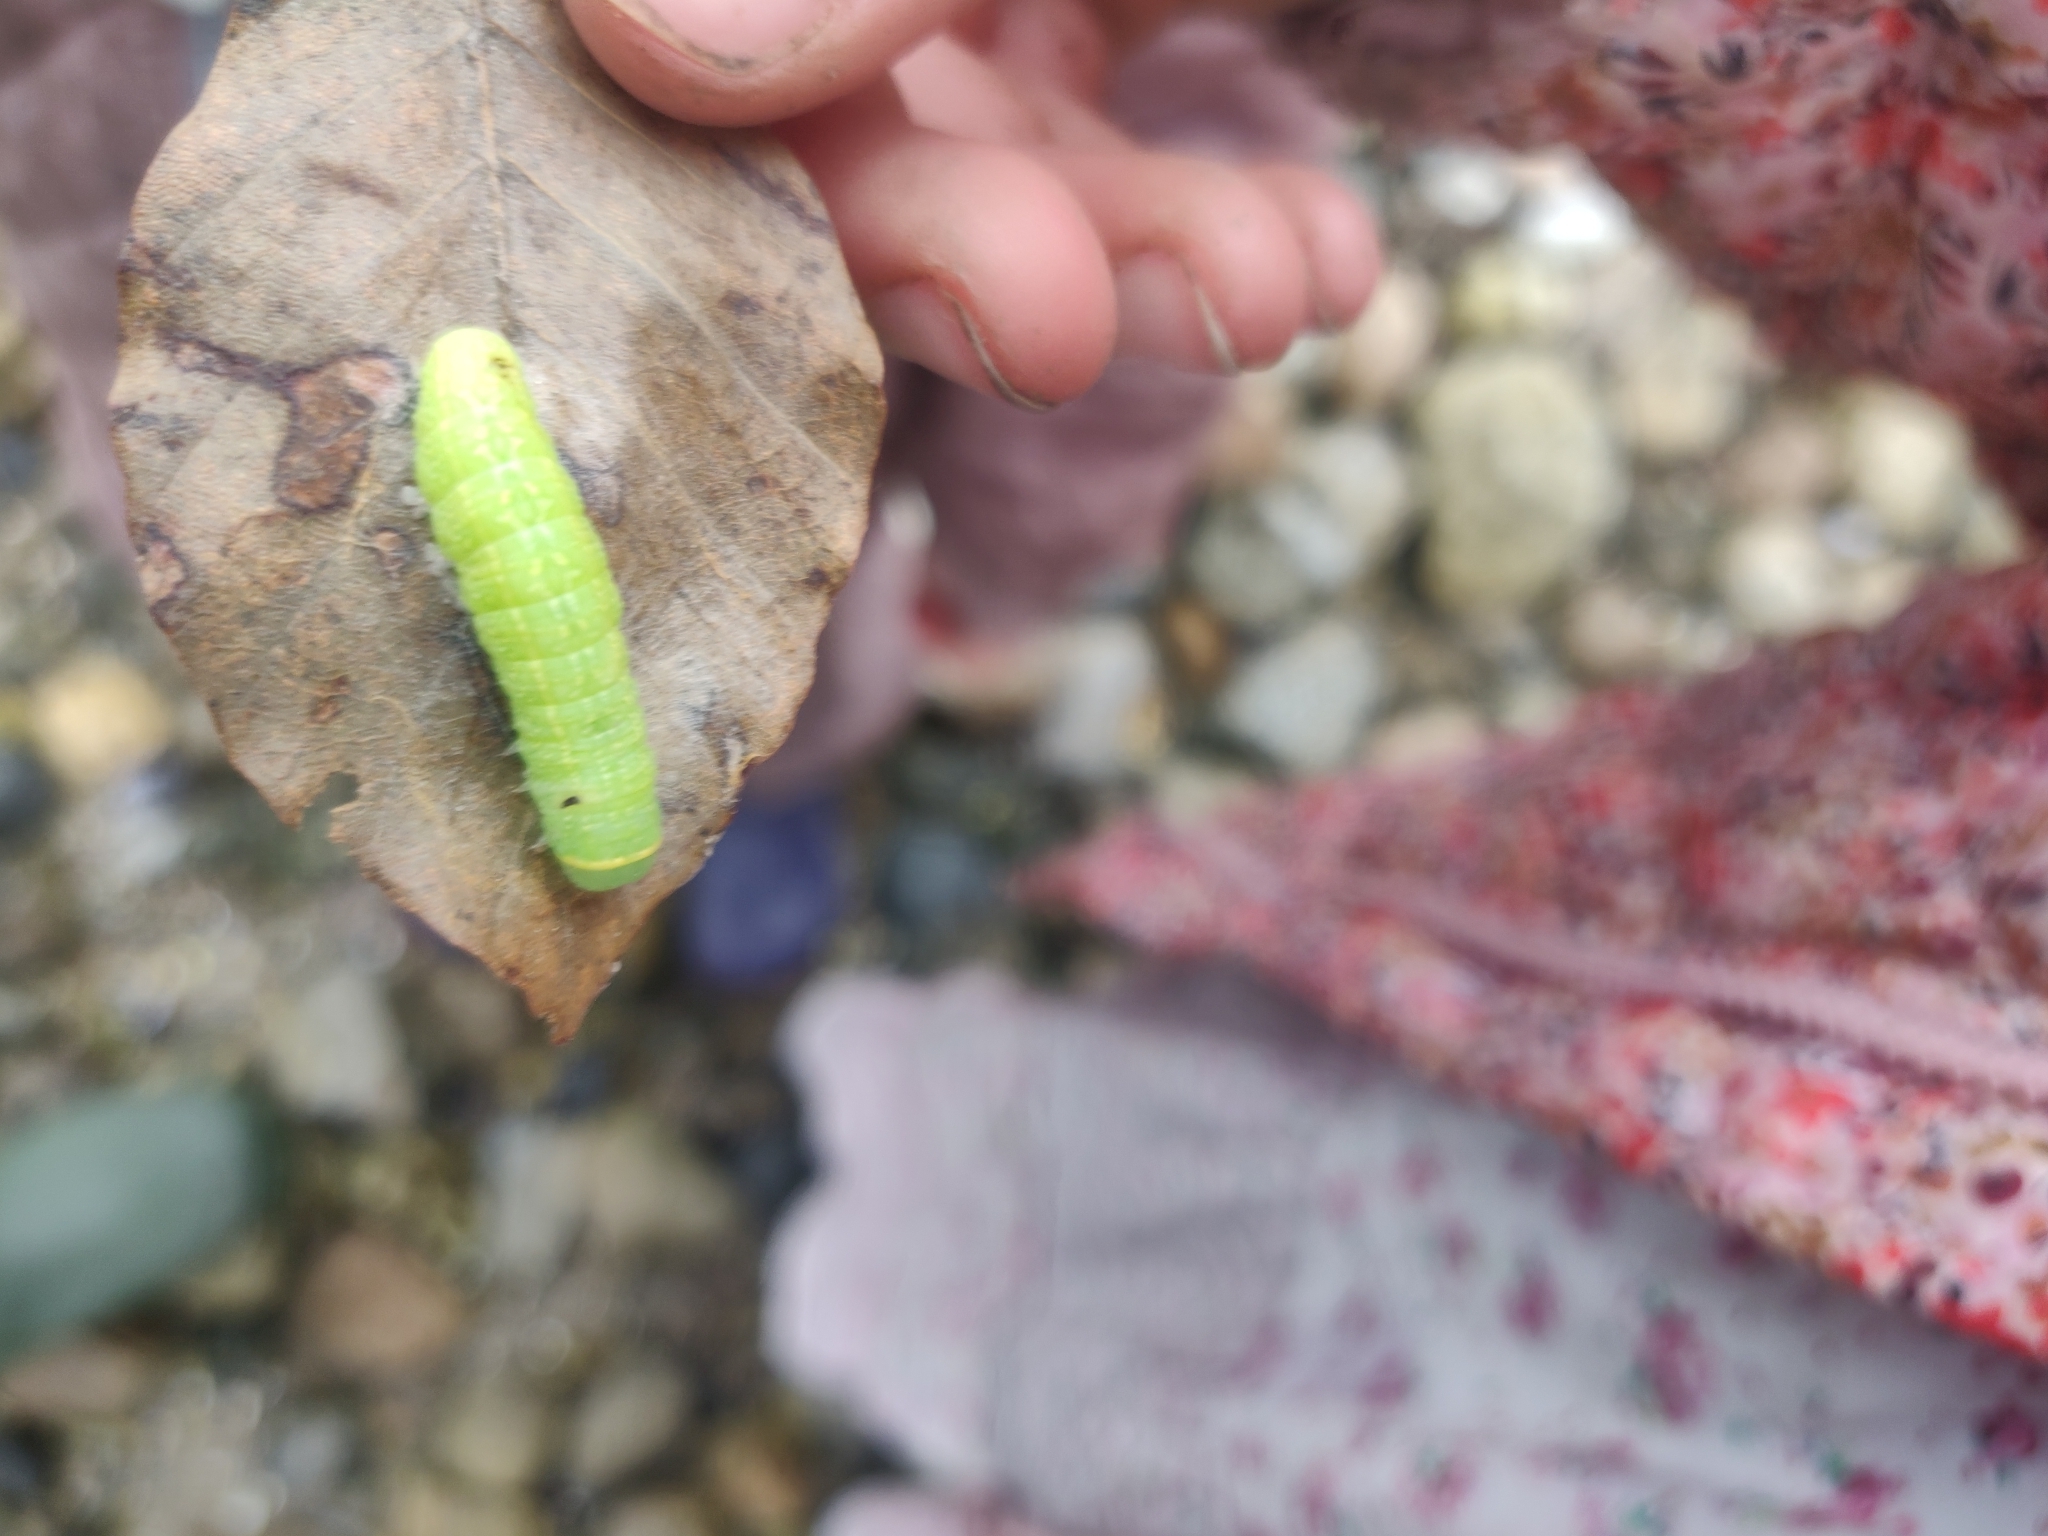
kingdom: Animalia
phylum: Arthropoda
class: Insecta
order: Lepidoptera
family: Nolidae
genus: Pseudoips
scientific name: Pseudoips prasinana
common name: Green silver-lines
